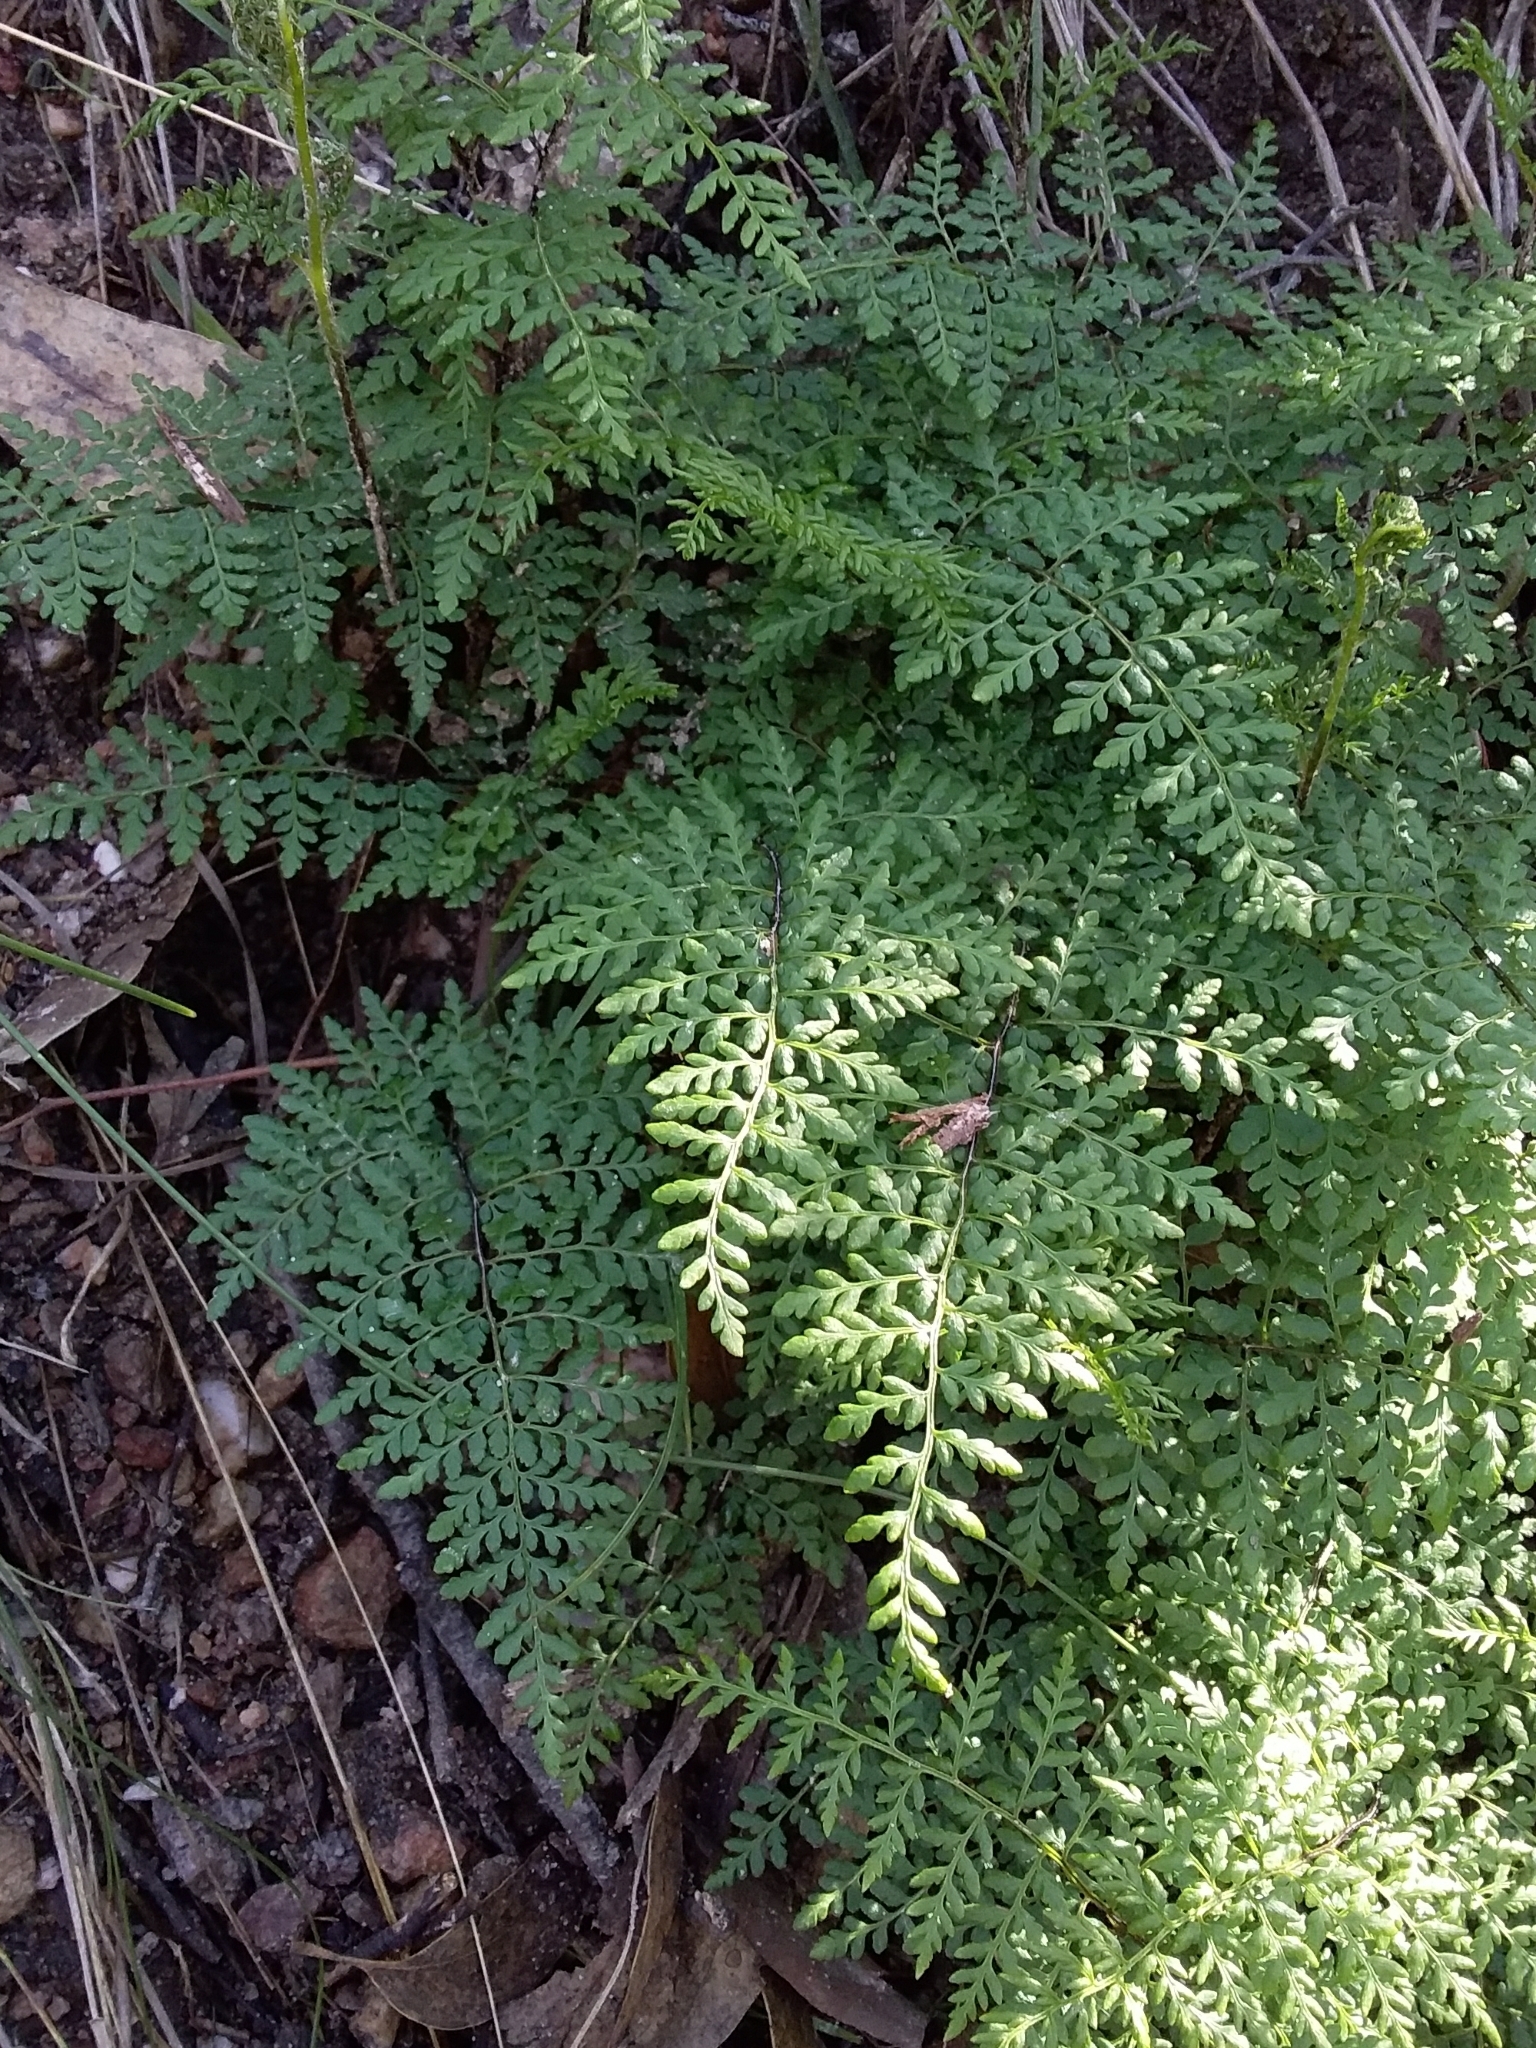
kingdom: Plantae
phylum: Tracheophyta
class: Polypodiopsida
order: Polypodiales
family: Pteridaceae
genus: Cheilanthes
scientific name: Cheilanthes austrotenuifolia
